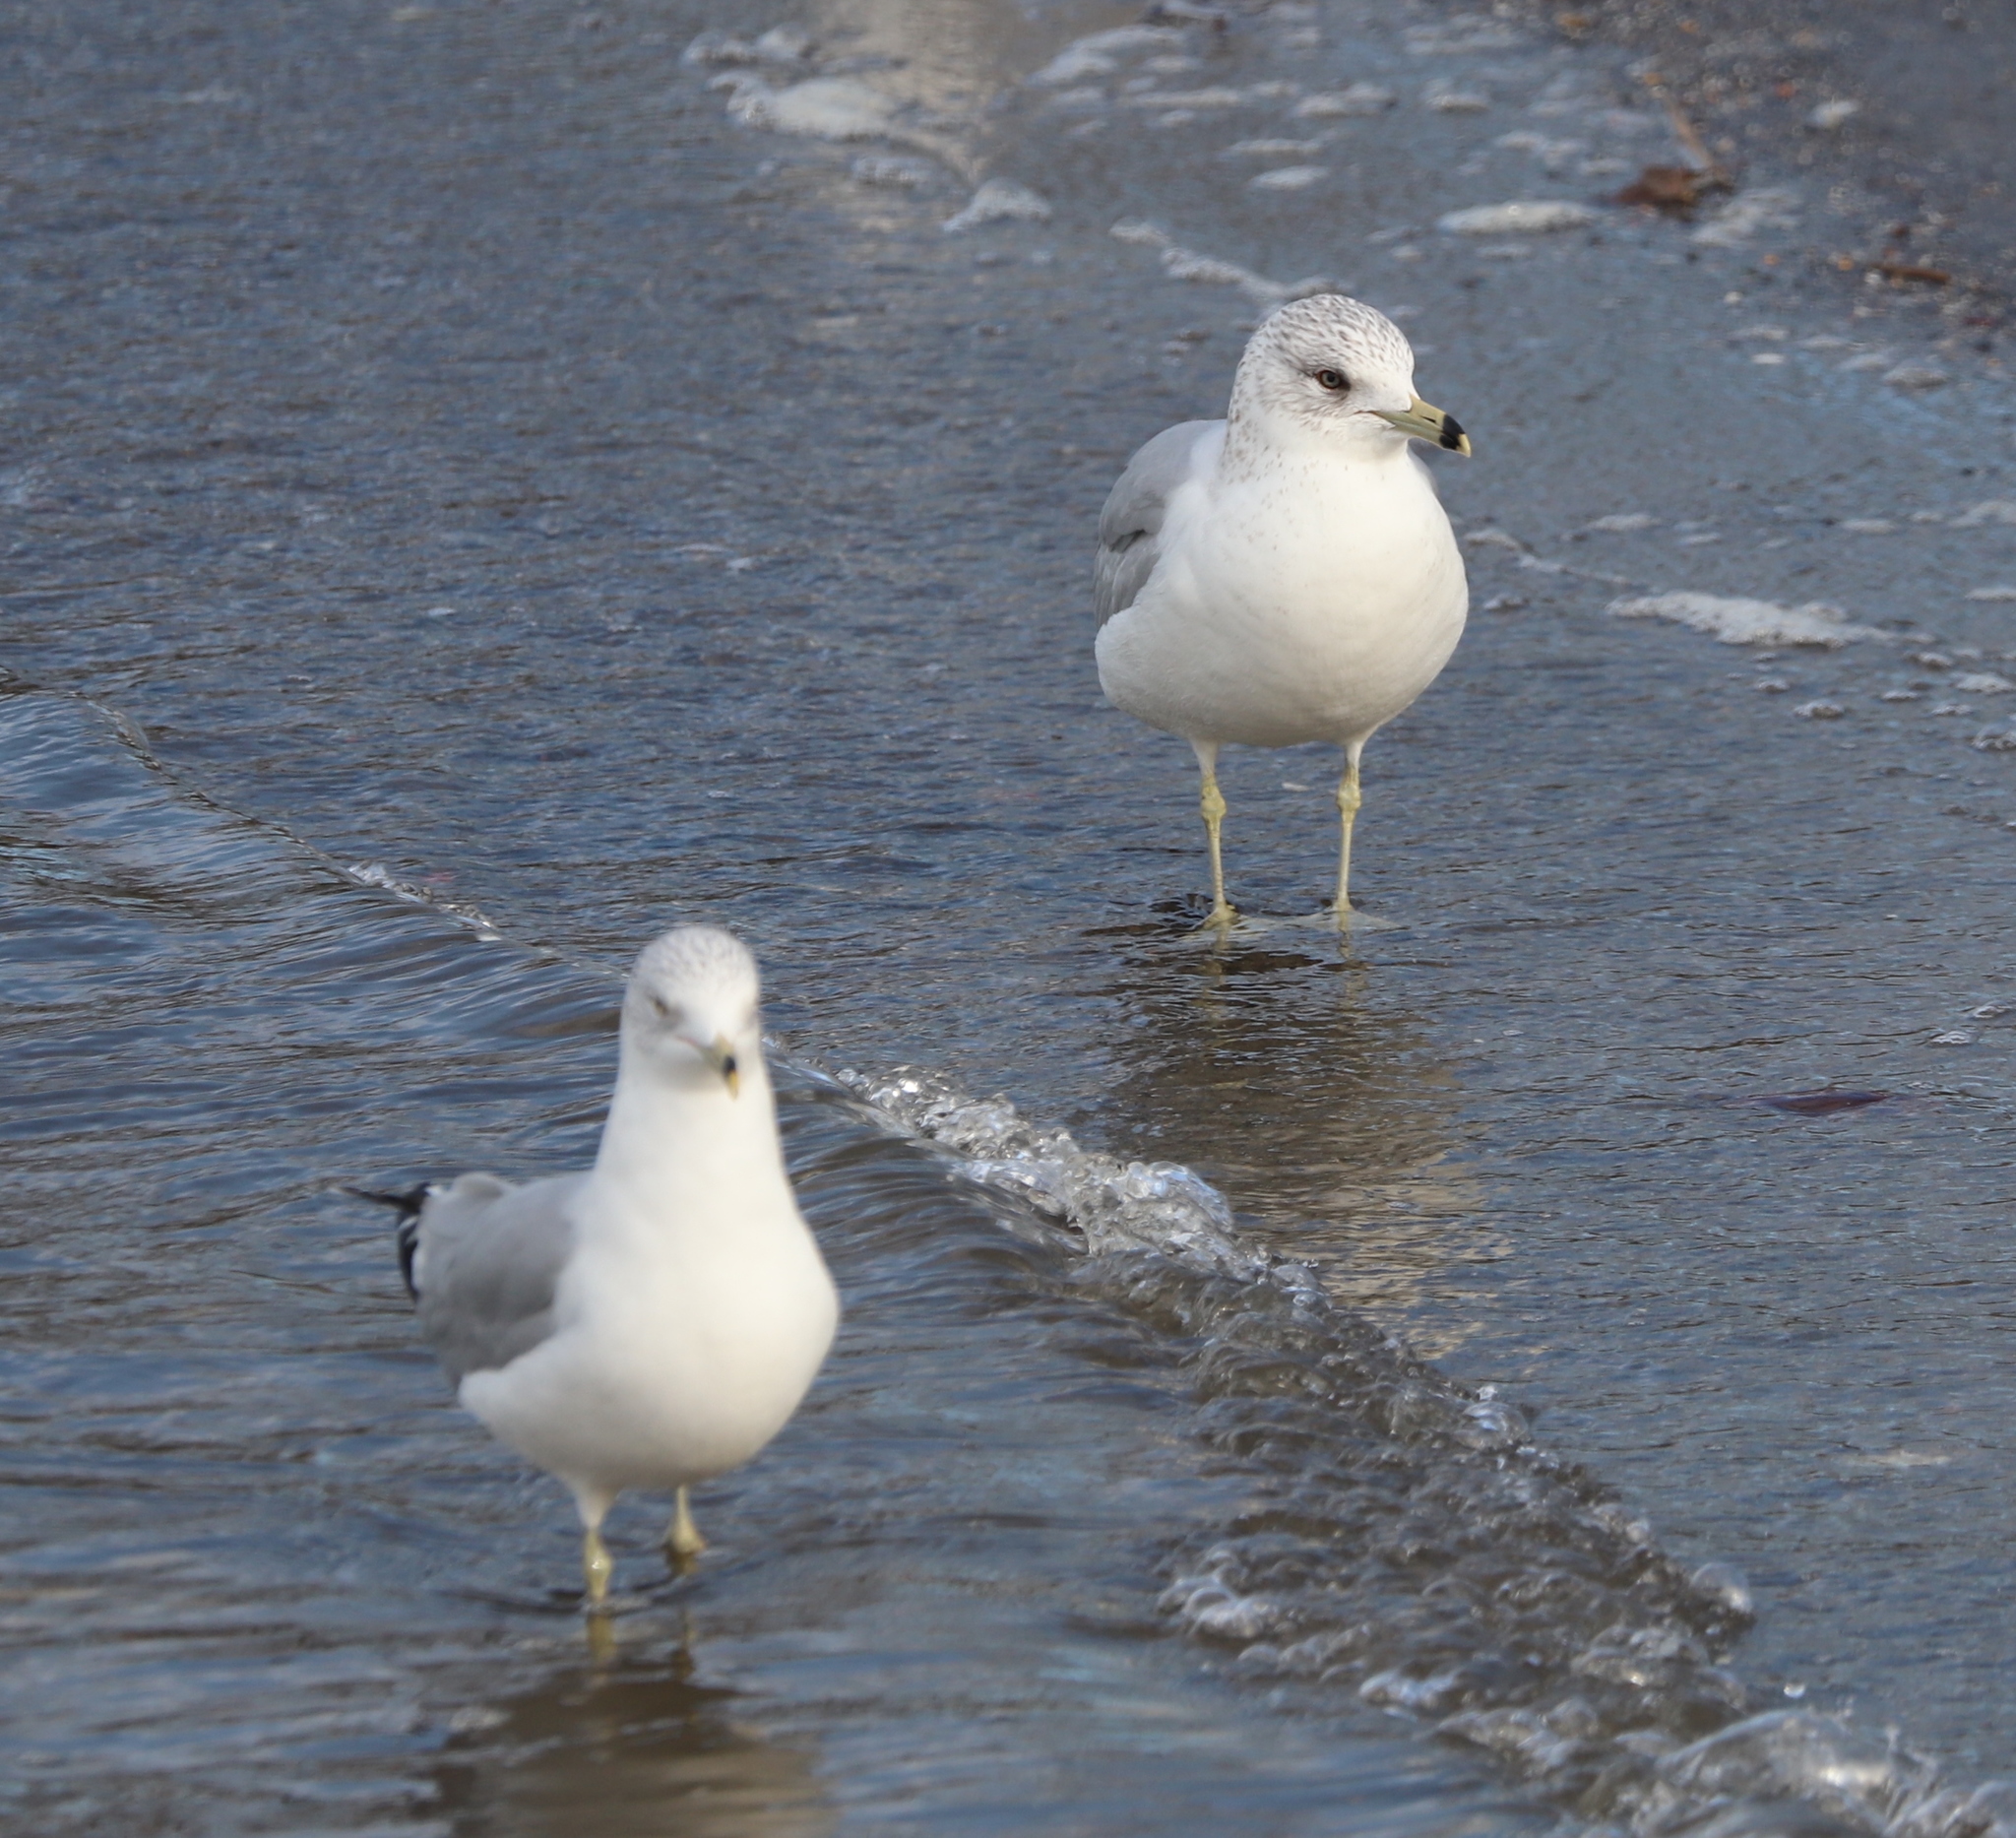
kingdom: Animalia
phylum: Chordata
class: Aves
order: Charadriiformes
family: Laridae
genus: Larus
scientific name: Larus delawarensis
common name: Ring-billed gull
